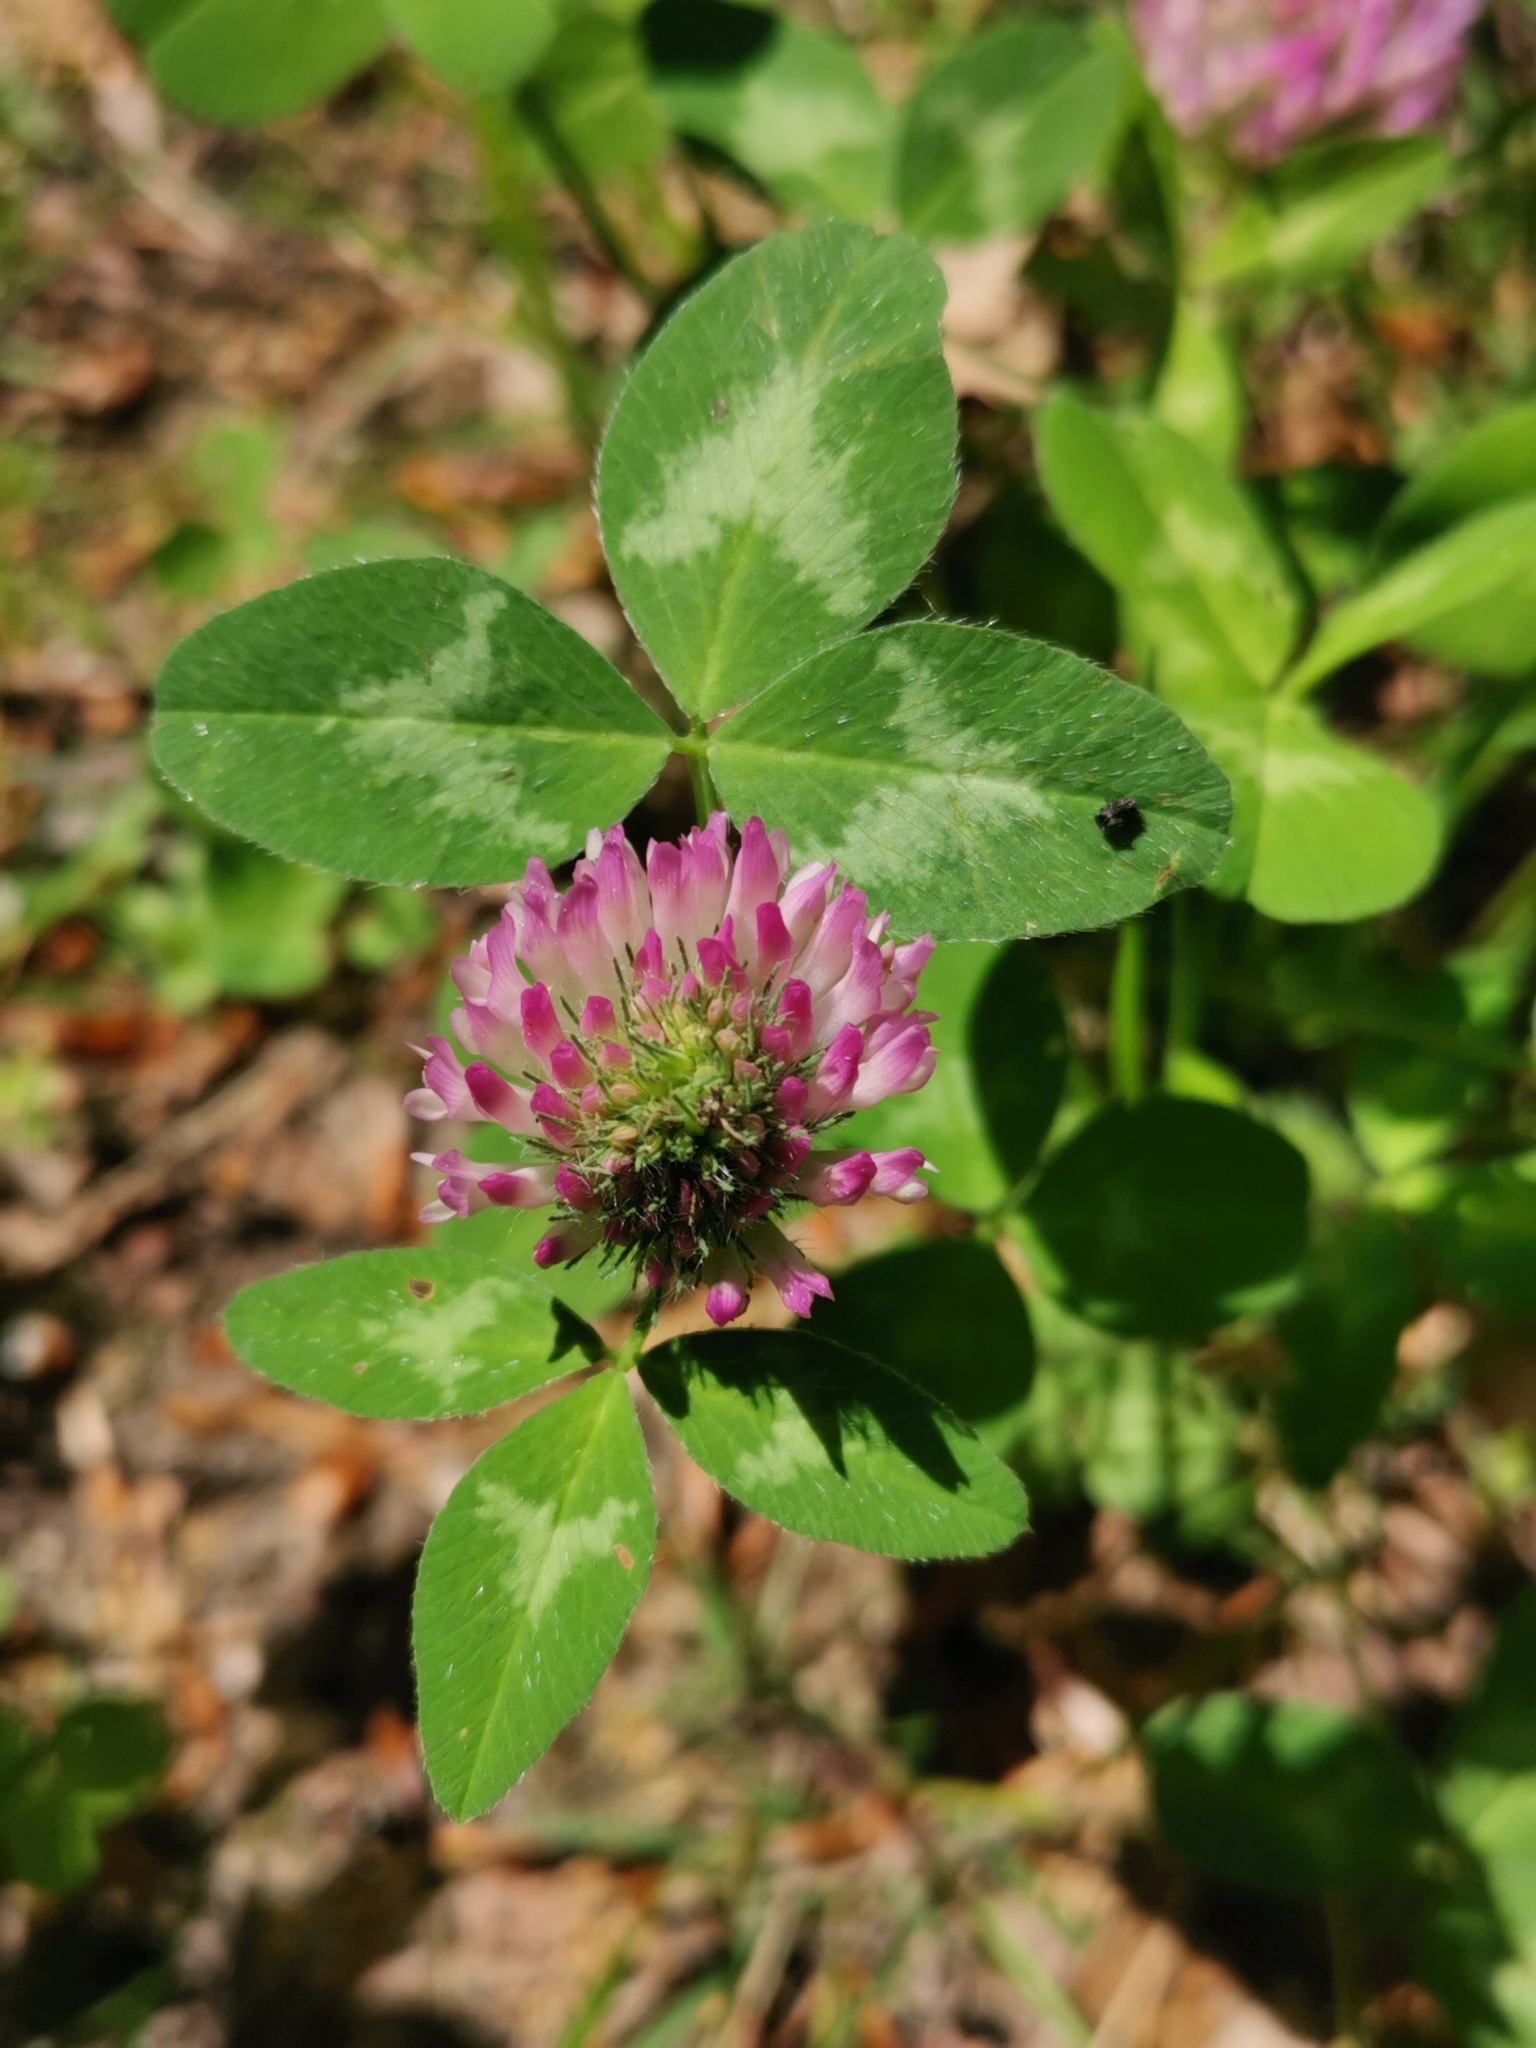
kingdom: Plantae
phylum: Tracheophyta
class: Magnoliopsida
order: Fabales
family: Fabaceae
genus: Trifolium
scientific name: Trifolium pratense
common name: Red clover
